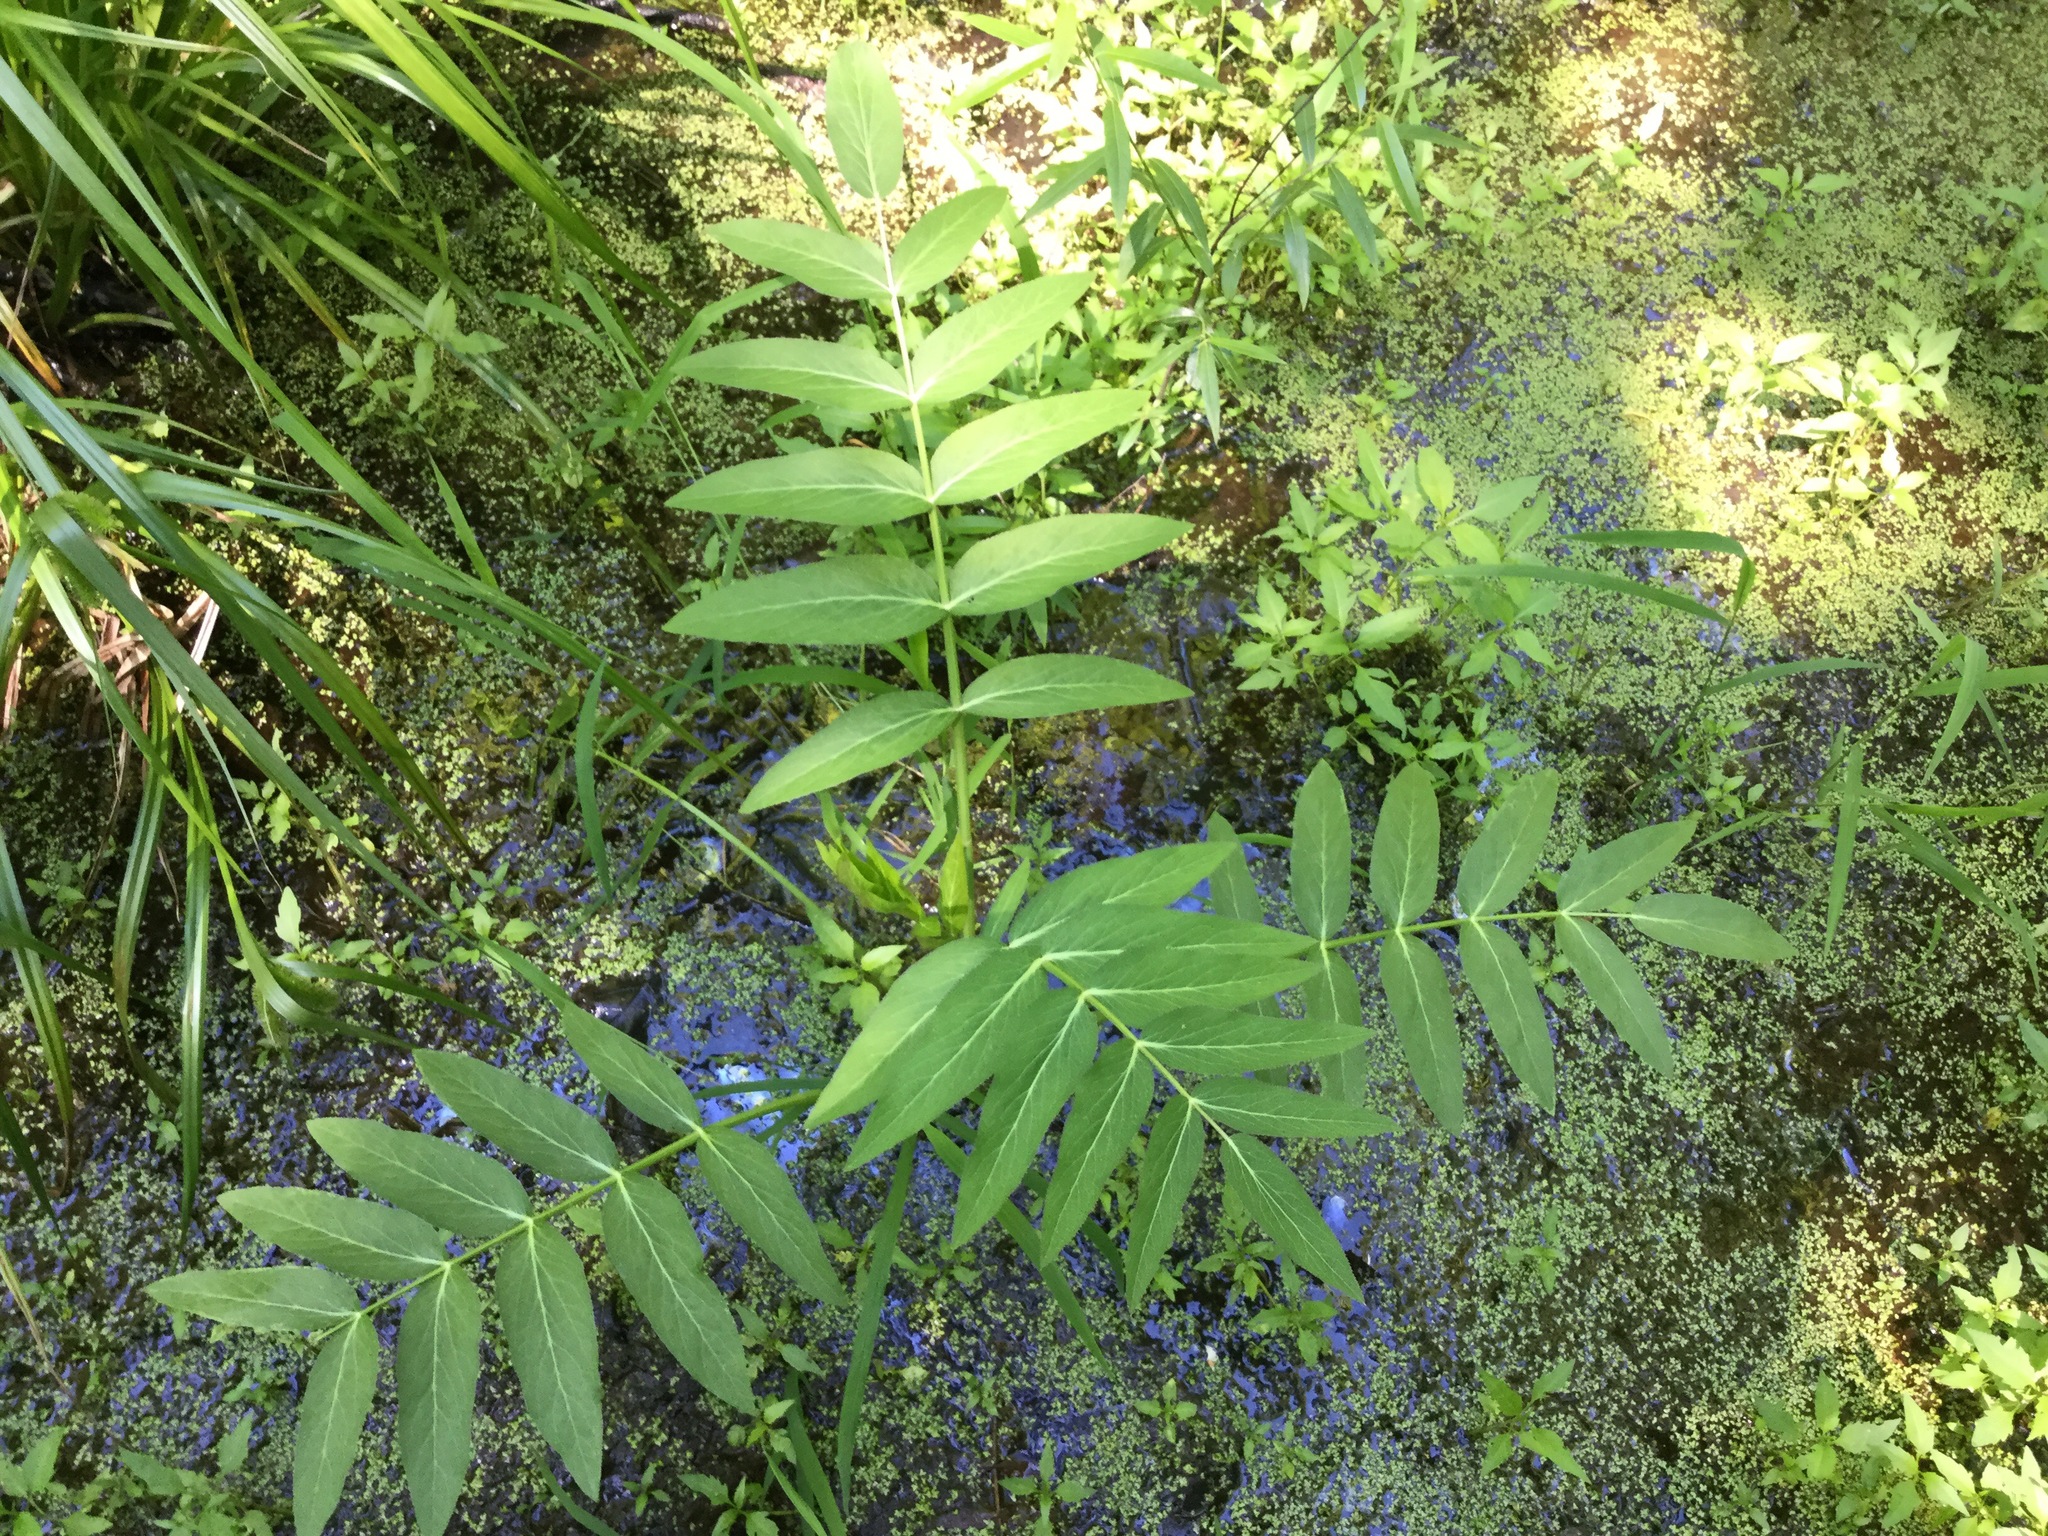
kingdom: Plantae
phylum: Tracheophyta
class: Magnoliopsida
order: Apiales
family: Apiaceae
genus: Sium
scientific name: Sium suave
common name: Hemlock water-parsnip
